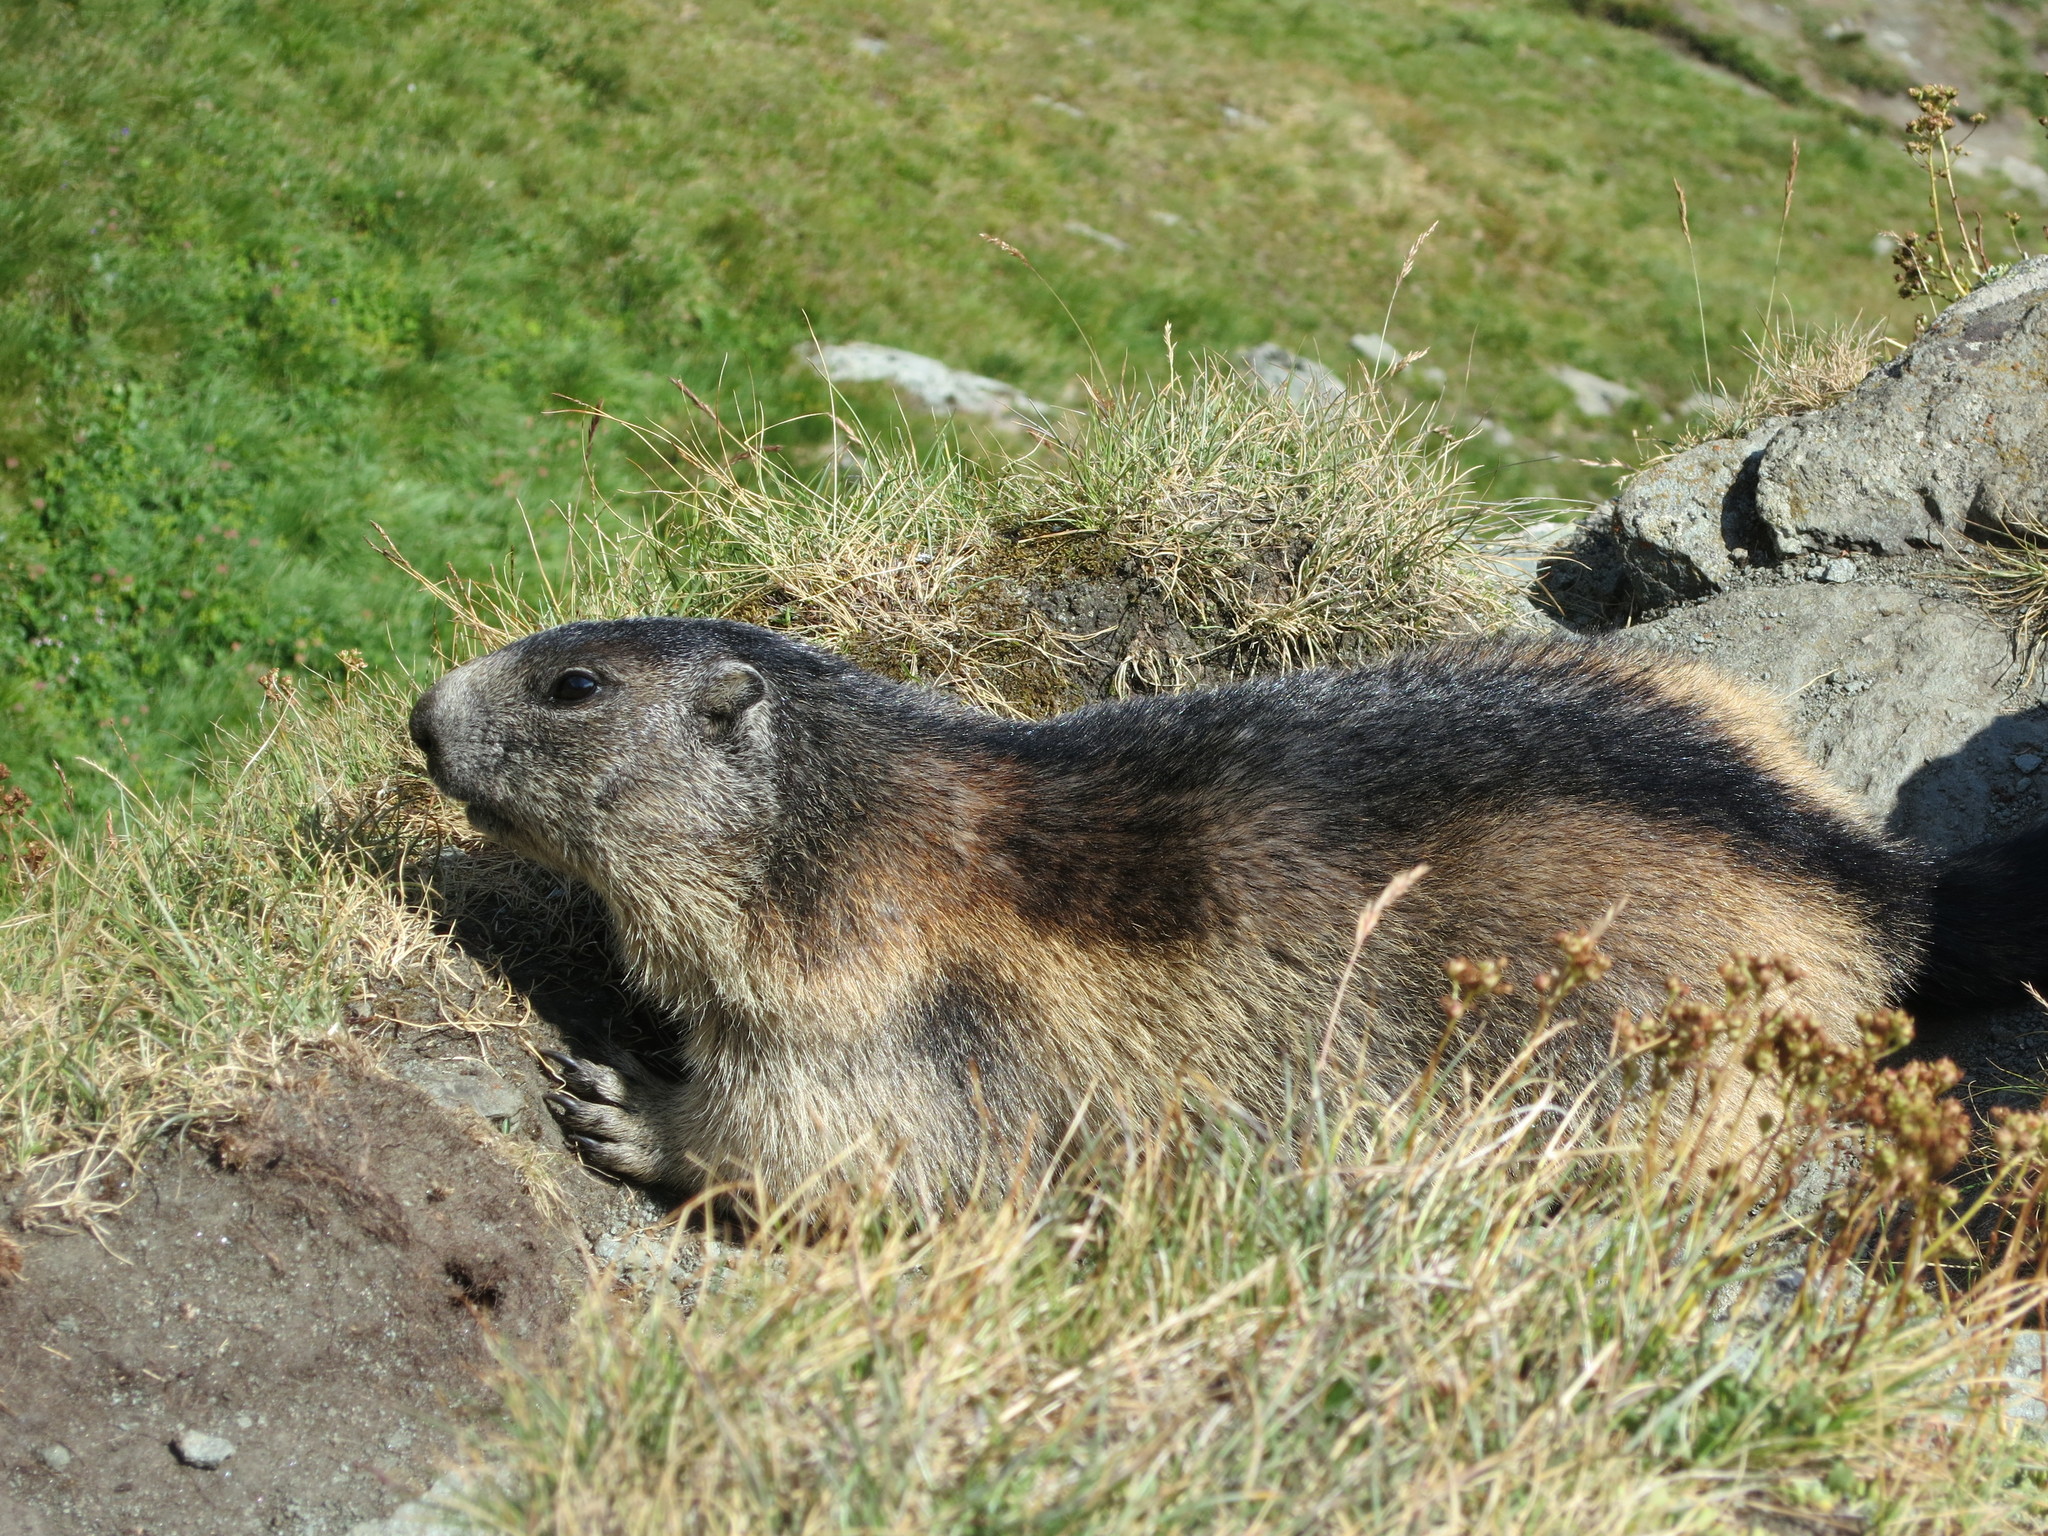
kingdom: Animalia
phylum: Chordata
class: Mammalia
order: Rodentia
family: Sciuridae
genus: Marmota
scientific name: Marmota marmota
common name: Alpine marmot
